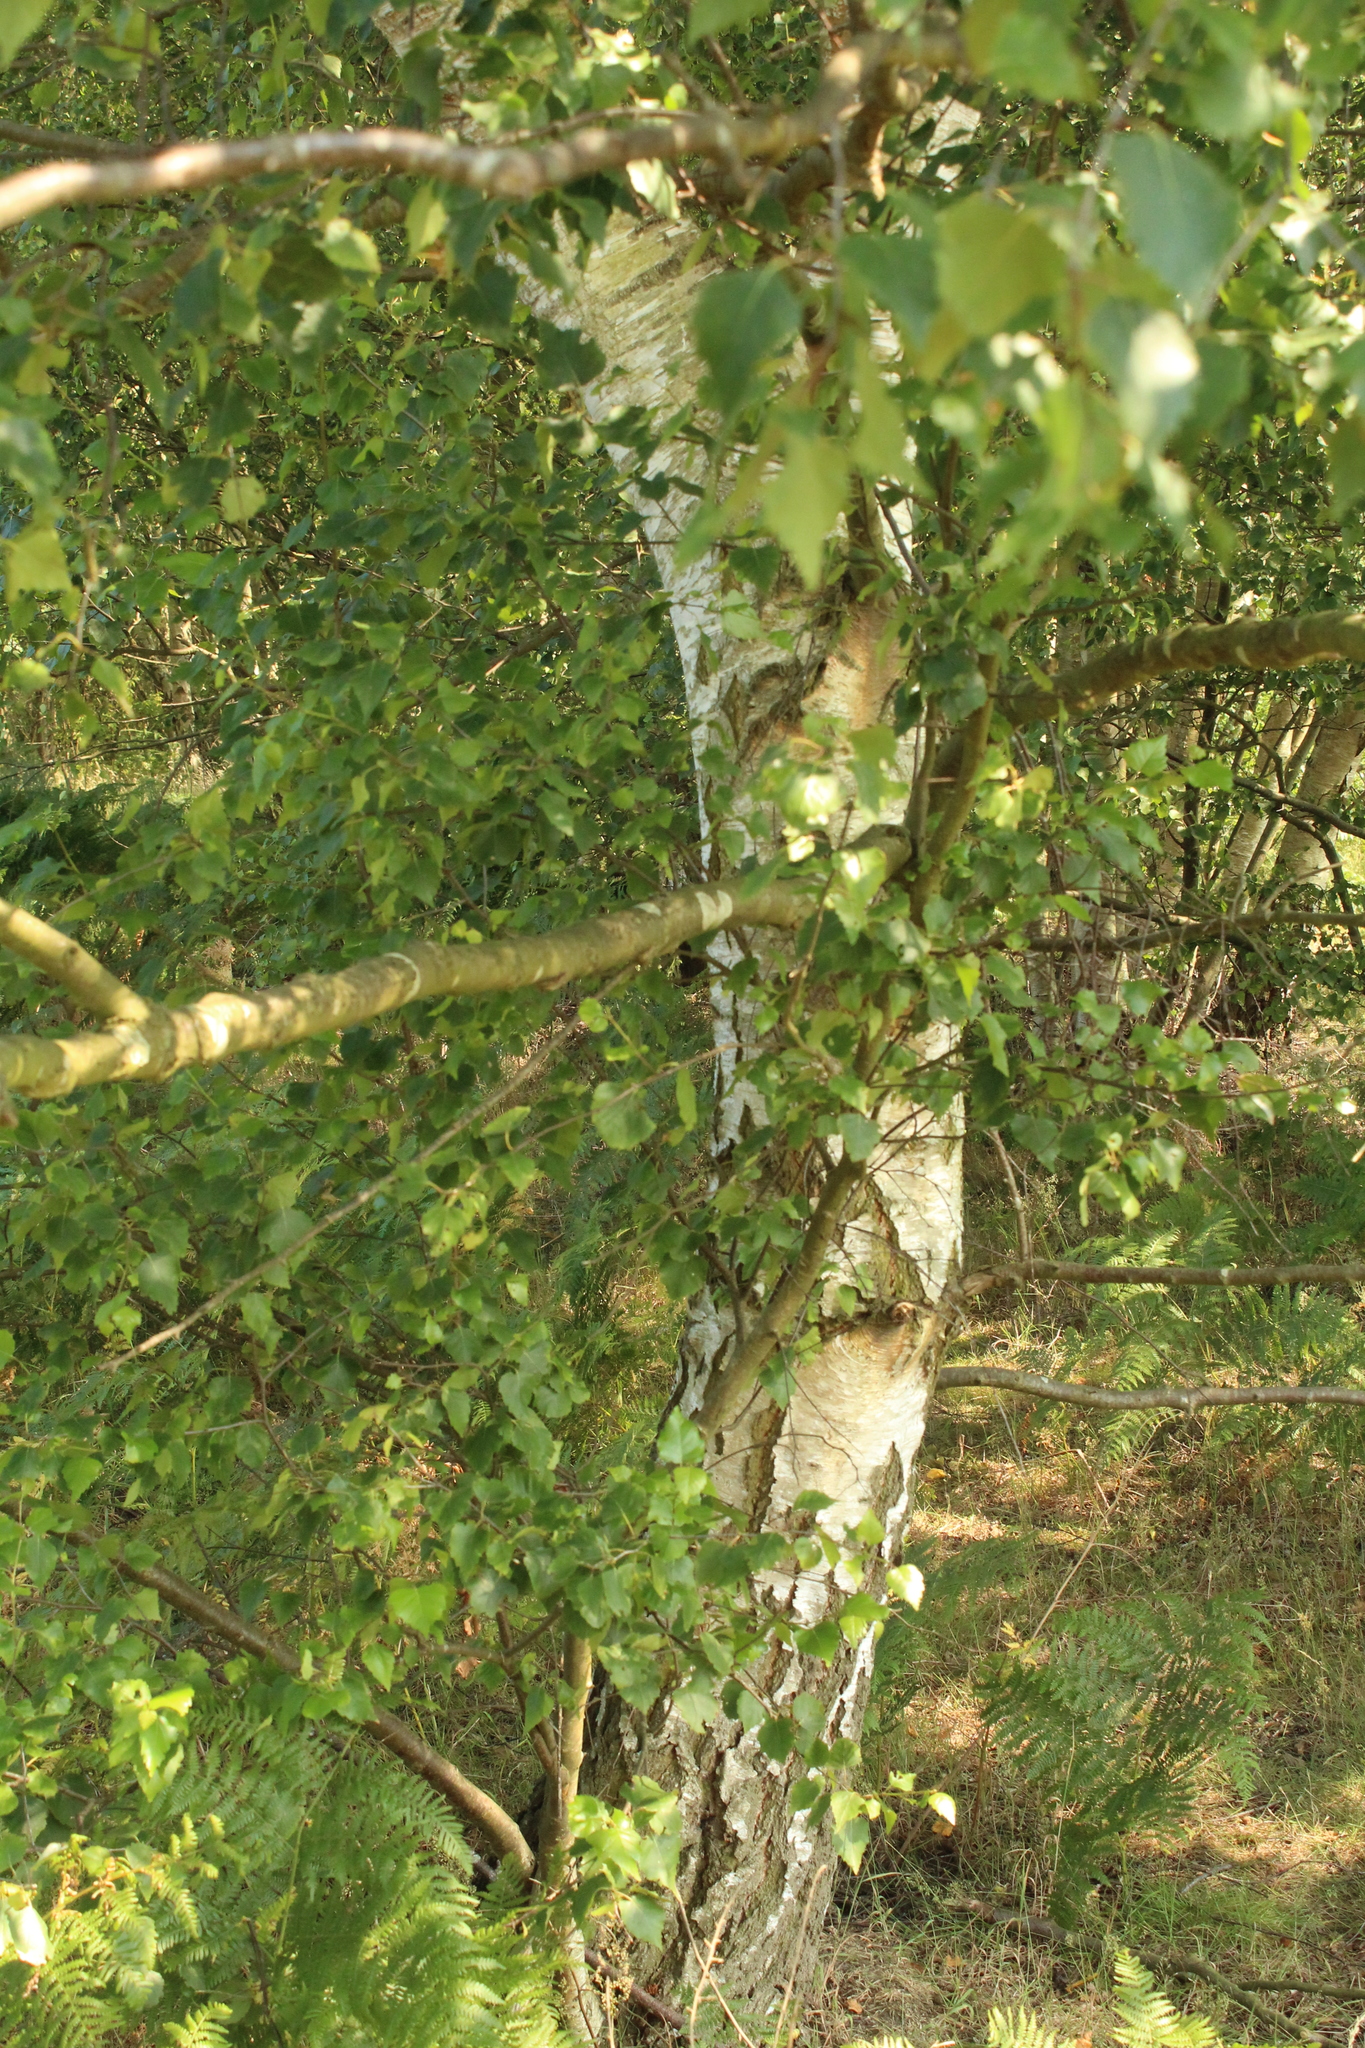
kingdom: Plantae
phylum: Tracheophyta
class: Magnoliopsida
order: Fagales
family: Betulaceae
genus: Betula
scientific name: Betula pendula
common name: Silver birch
